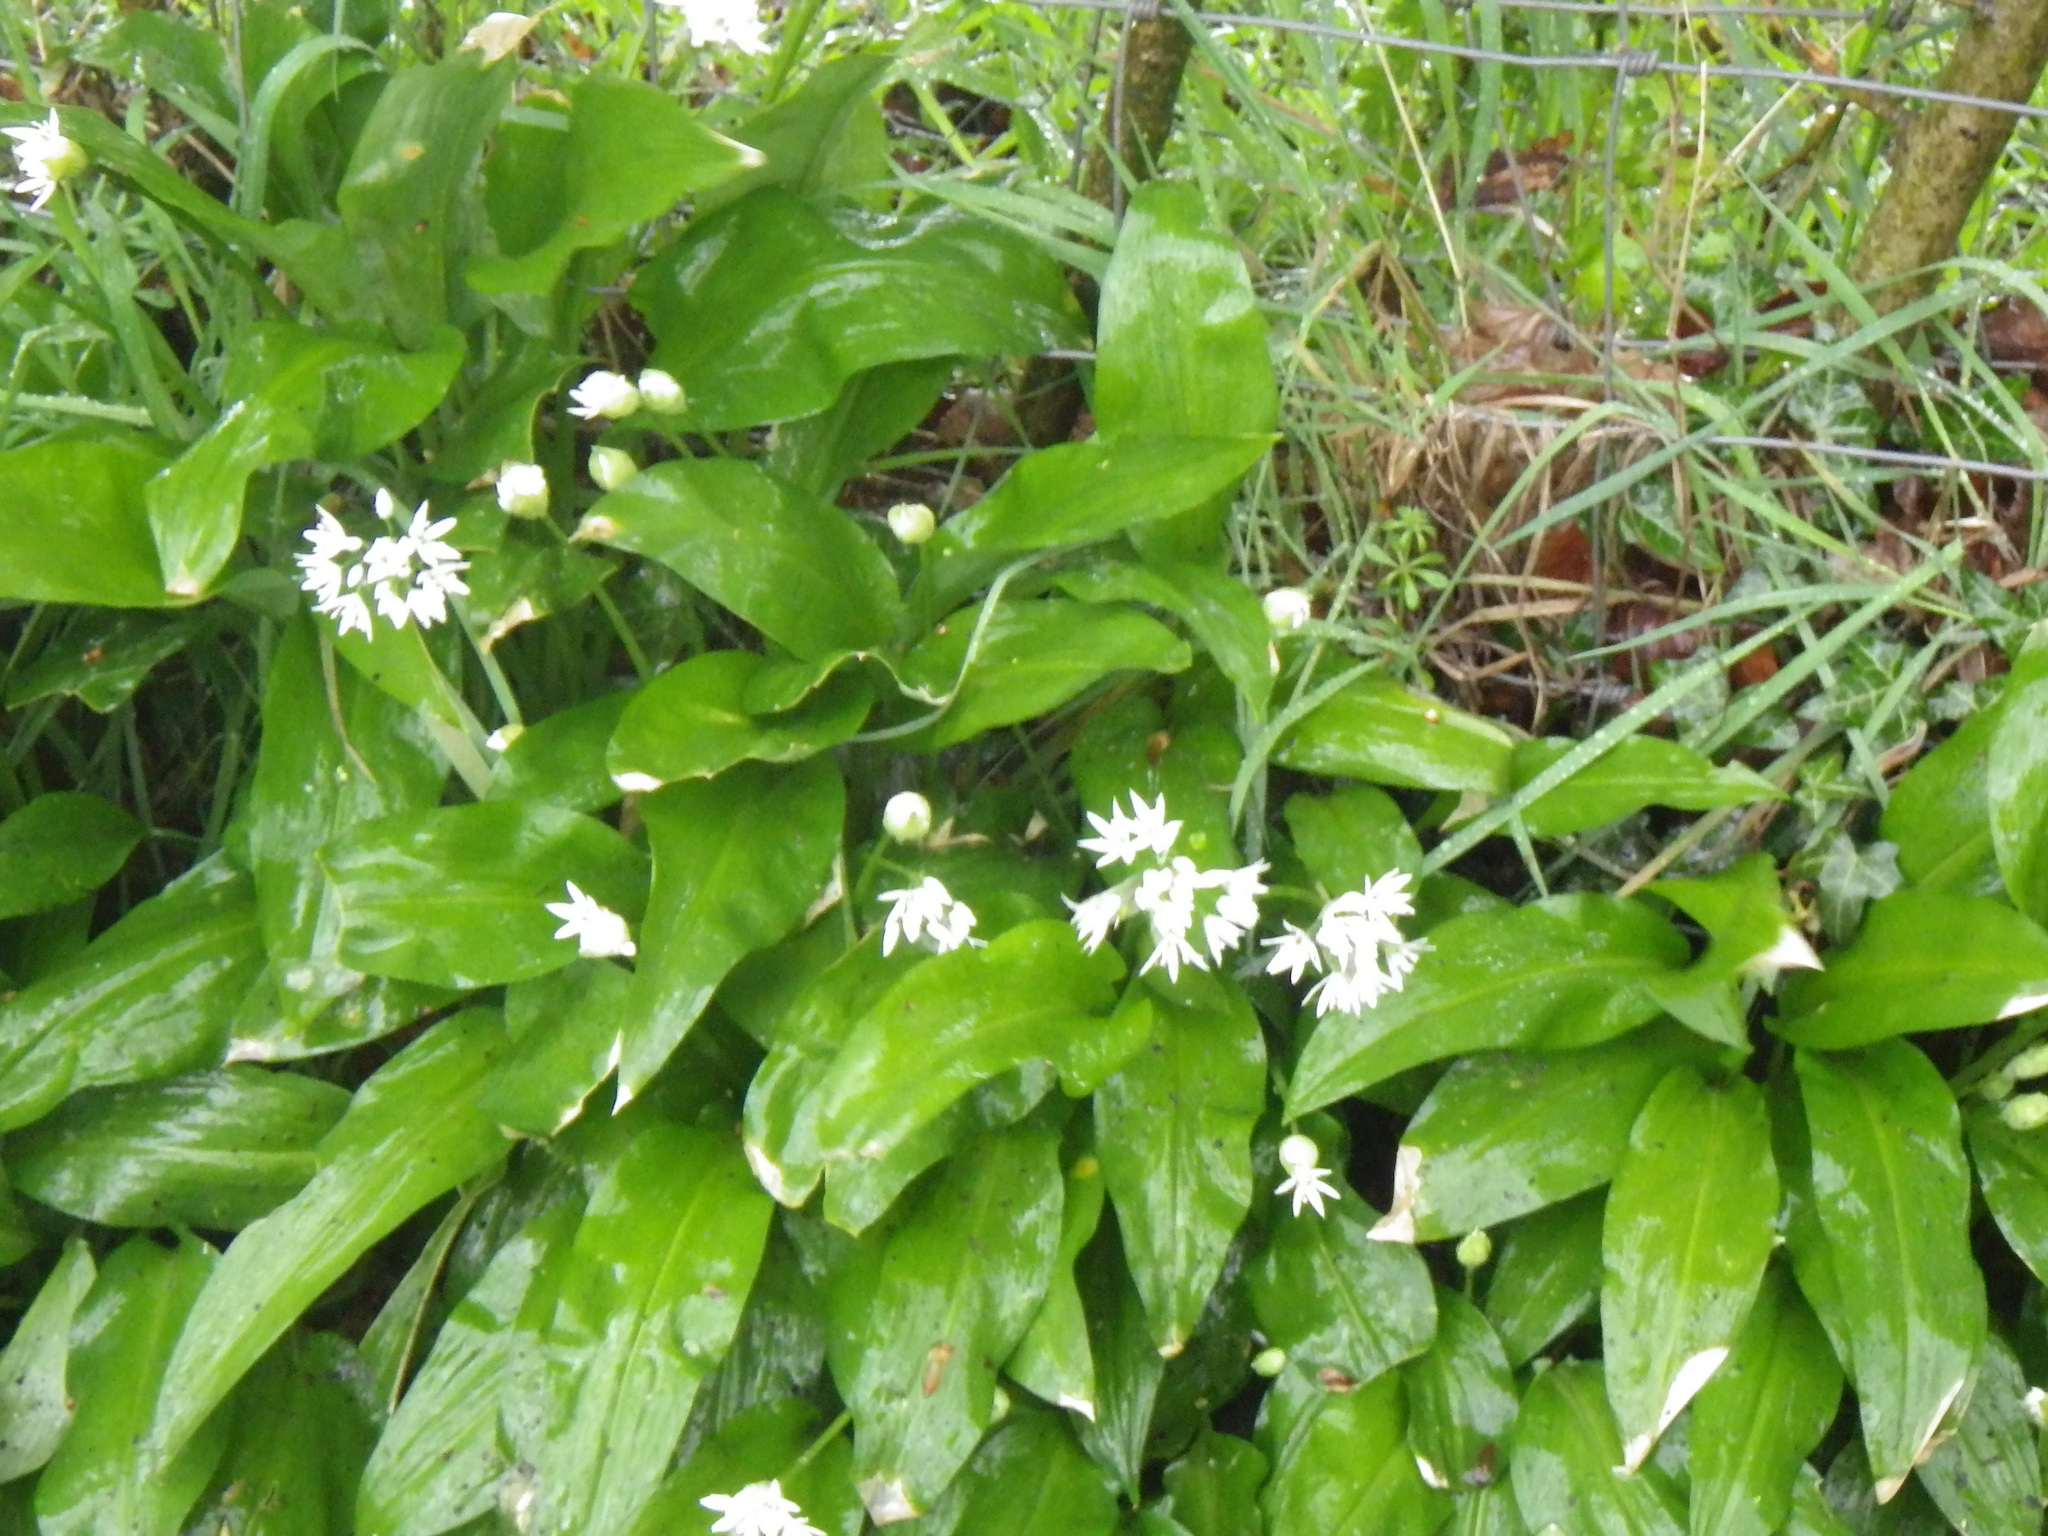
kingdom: Plantae
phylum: Tracheophyta
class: Liliopsida
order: Asparagales
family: Amaryllidaceae
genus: Allium
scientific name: Allium ursinum
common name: Ramsons
